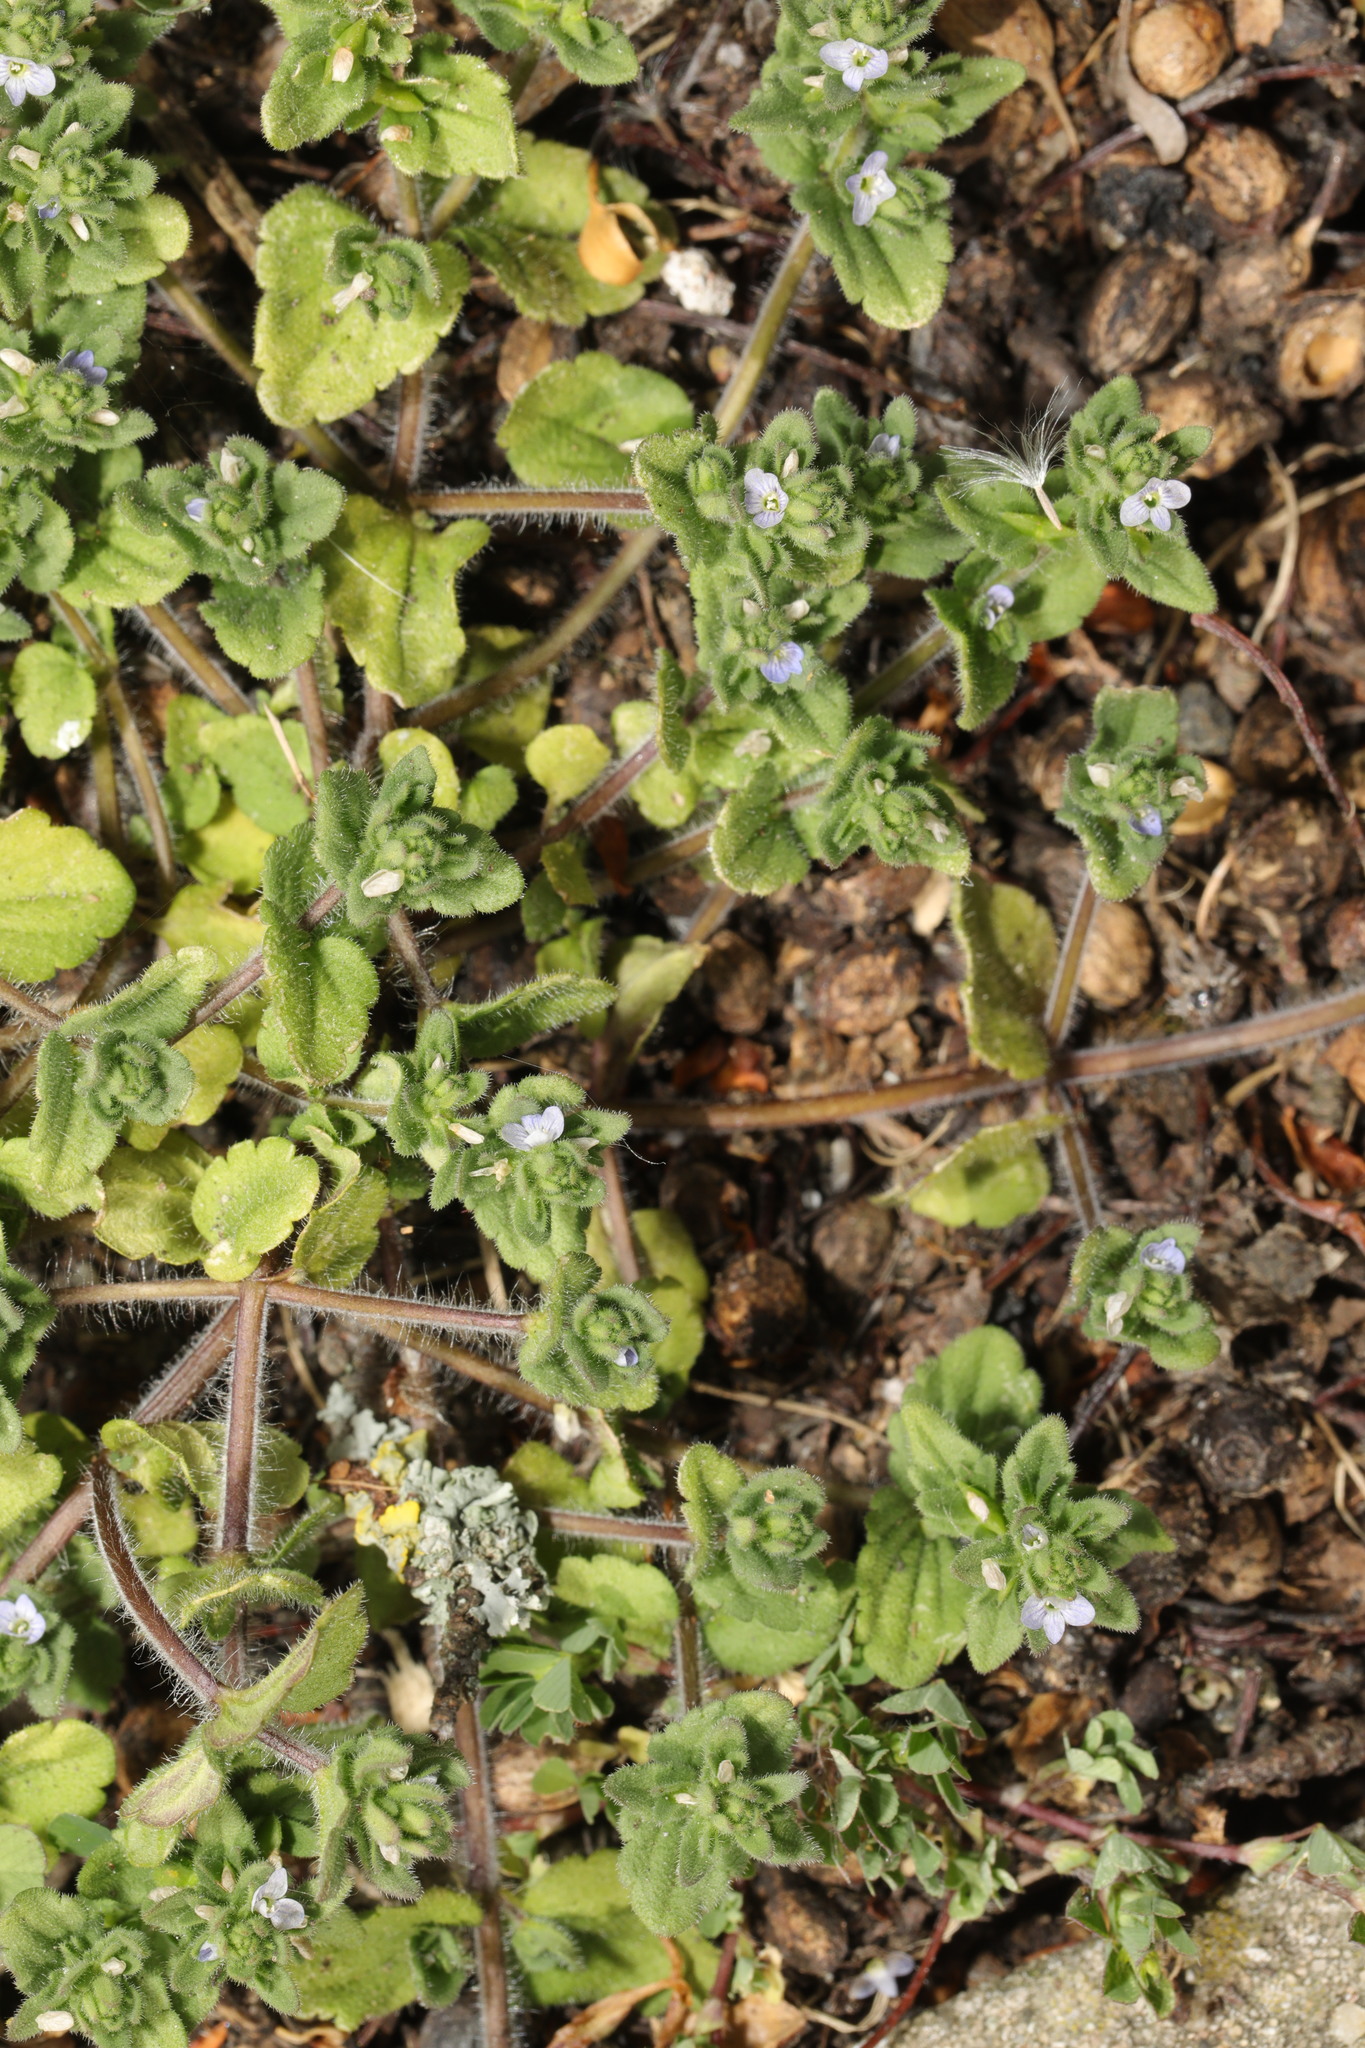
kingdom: Plantae
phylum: Tracheophyta
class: Magnoliopsida
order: Lamiales
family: Plantaginaceae
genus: Veronica
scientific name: Veronica arvensis
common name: Corn speedwell
